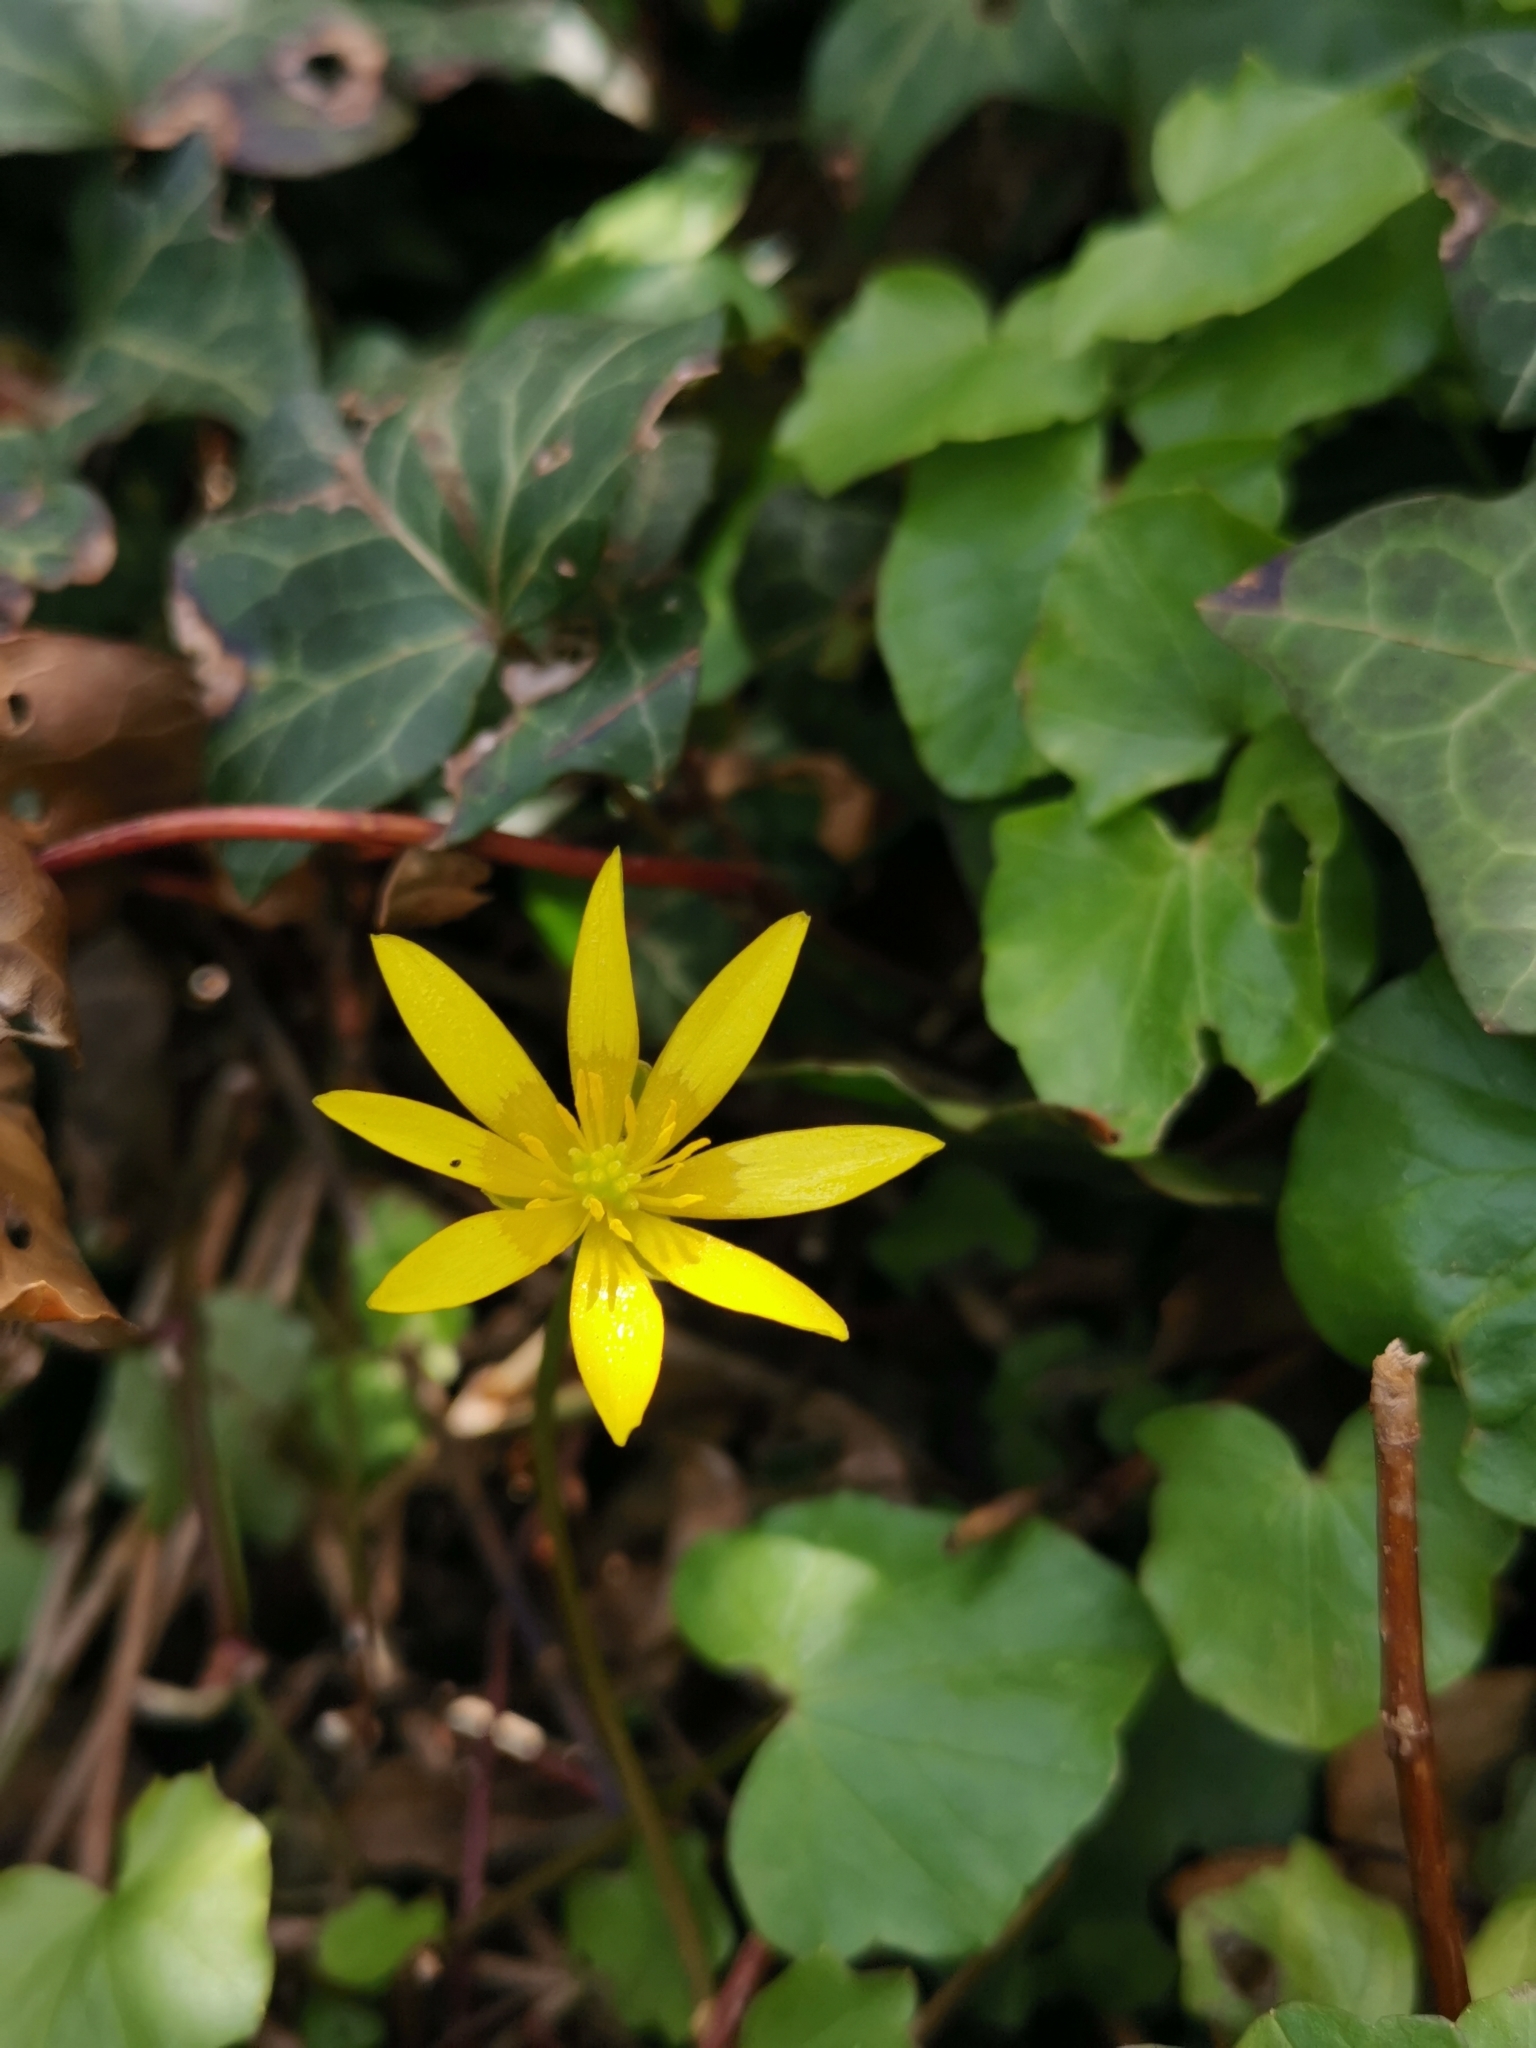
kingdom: Plantae
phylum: Tracheophyta
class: Magnoliopsida
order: Ranunculales
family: Ranunculaceae
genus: Ficaria
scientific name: Ficaria verna
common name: Lesser celandine
